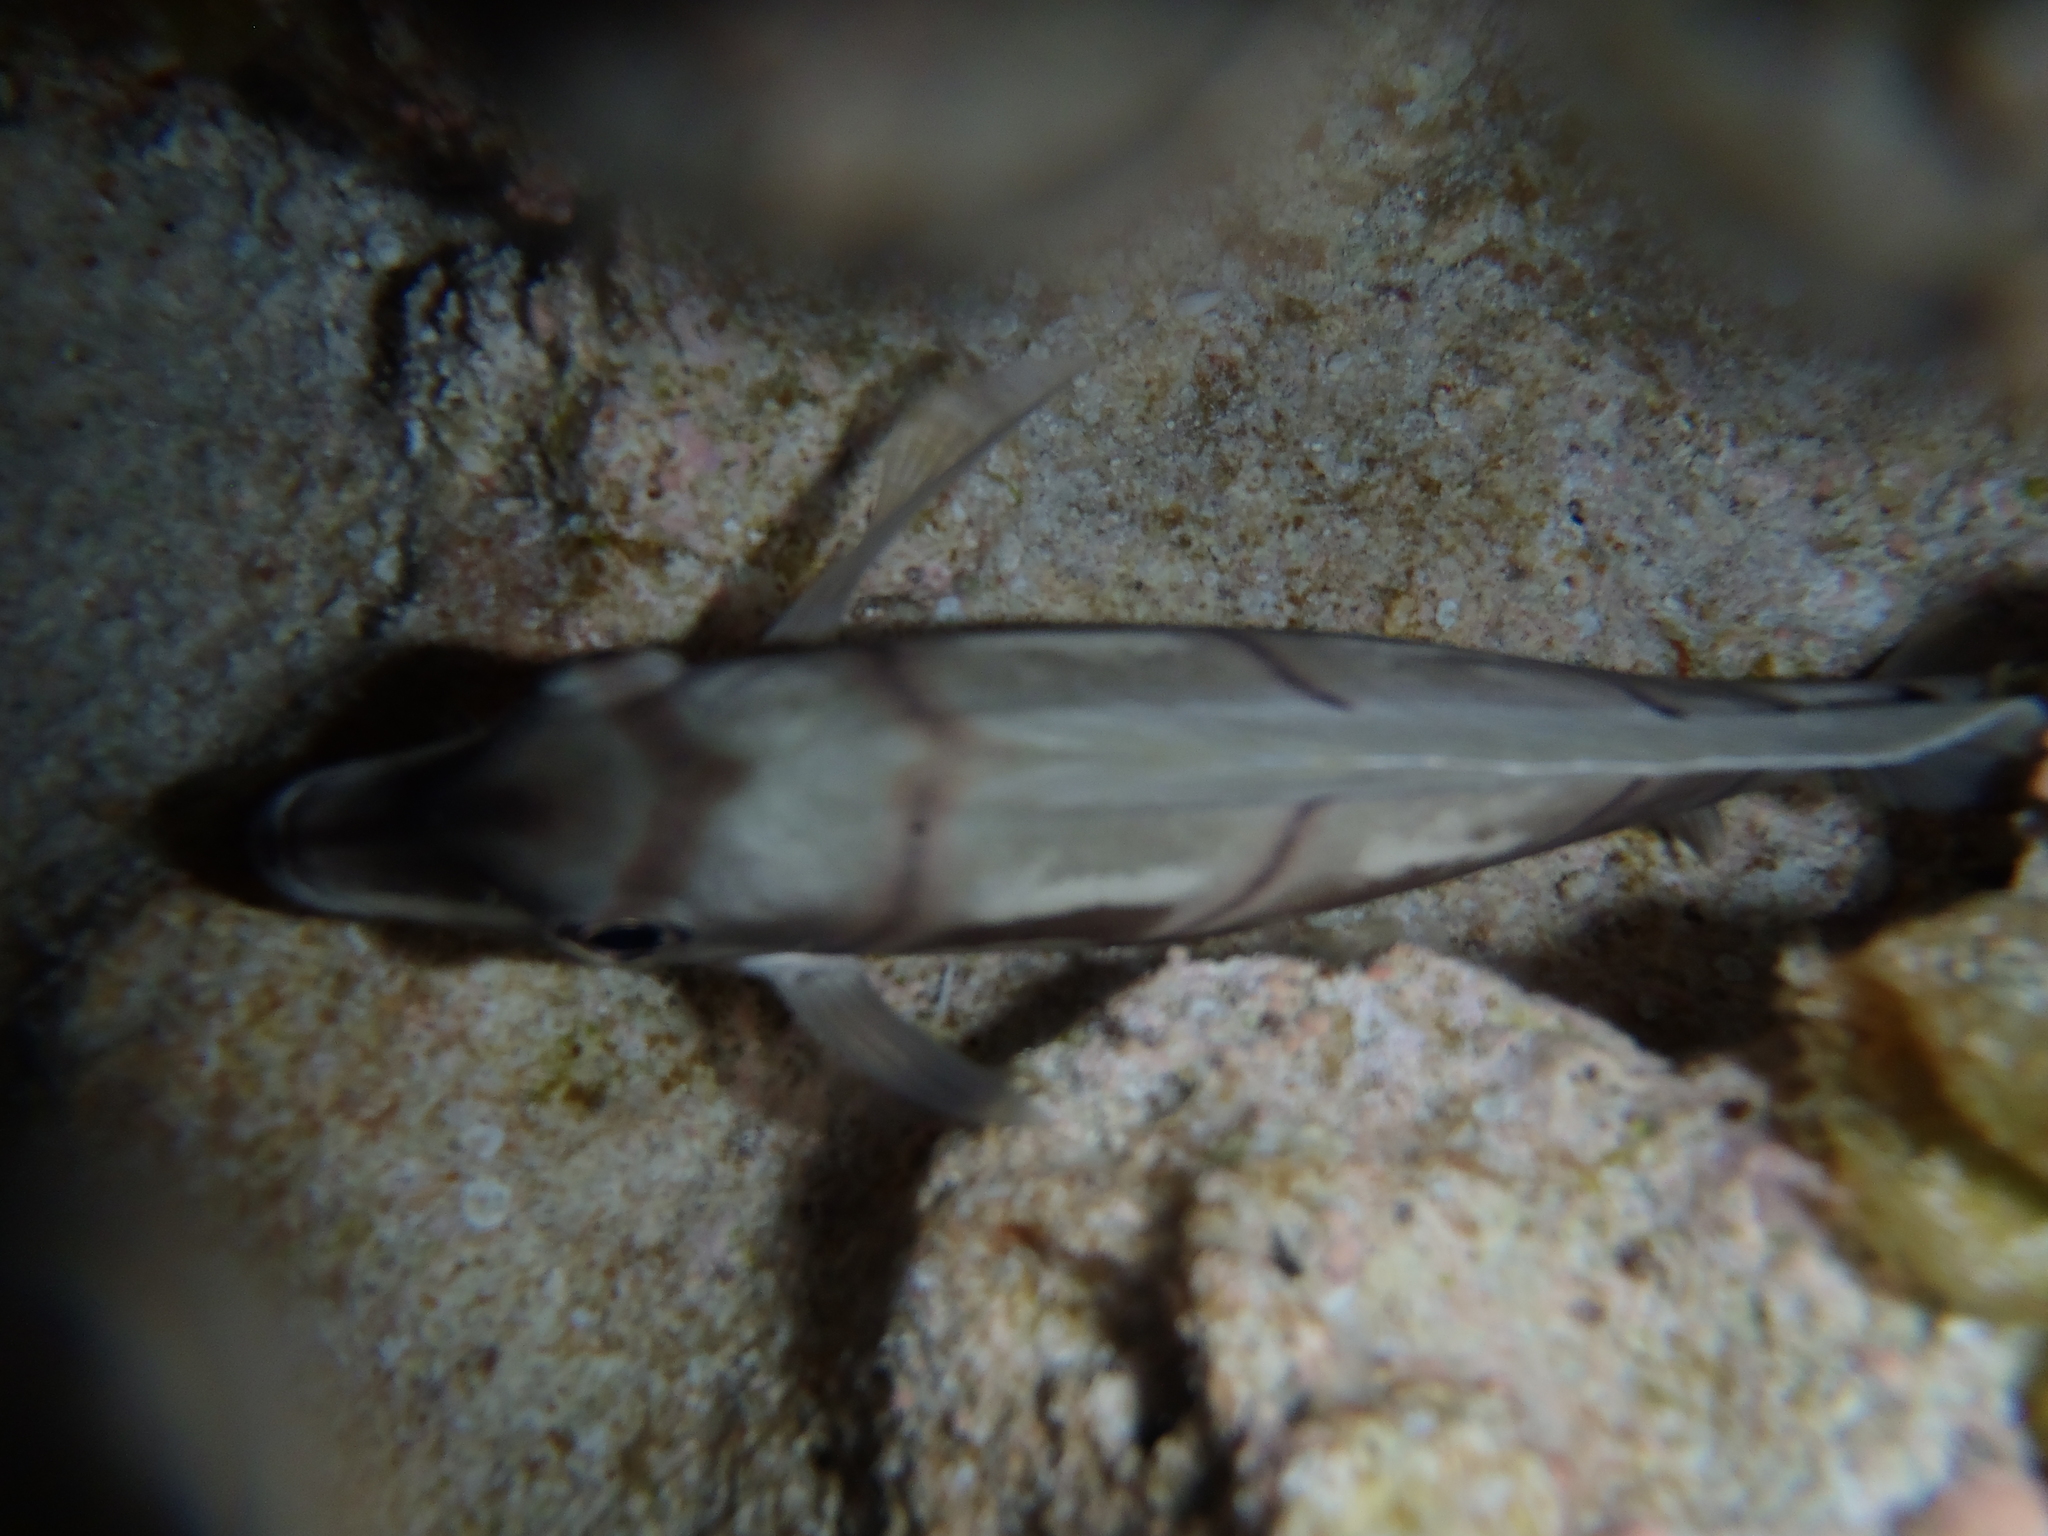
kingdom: Animalia
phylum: Chordata
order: Perciformes
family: Acanthuridae
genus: Acanthurus
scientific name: Acanthurus triostegus
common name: Convict surgeonfish
